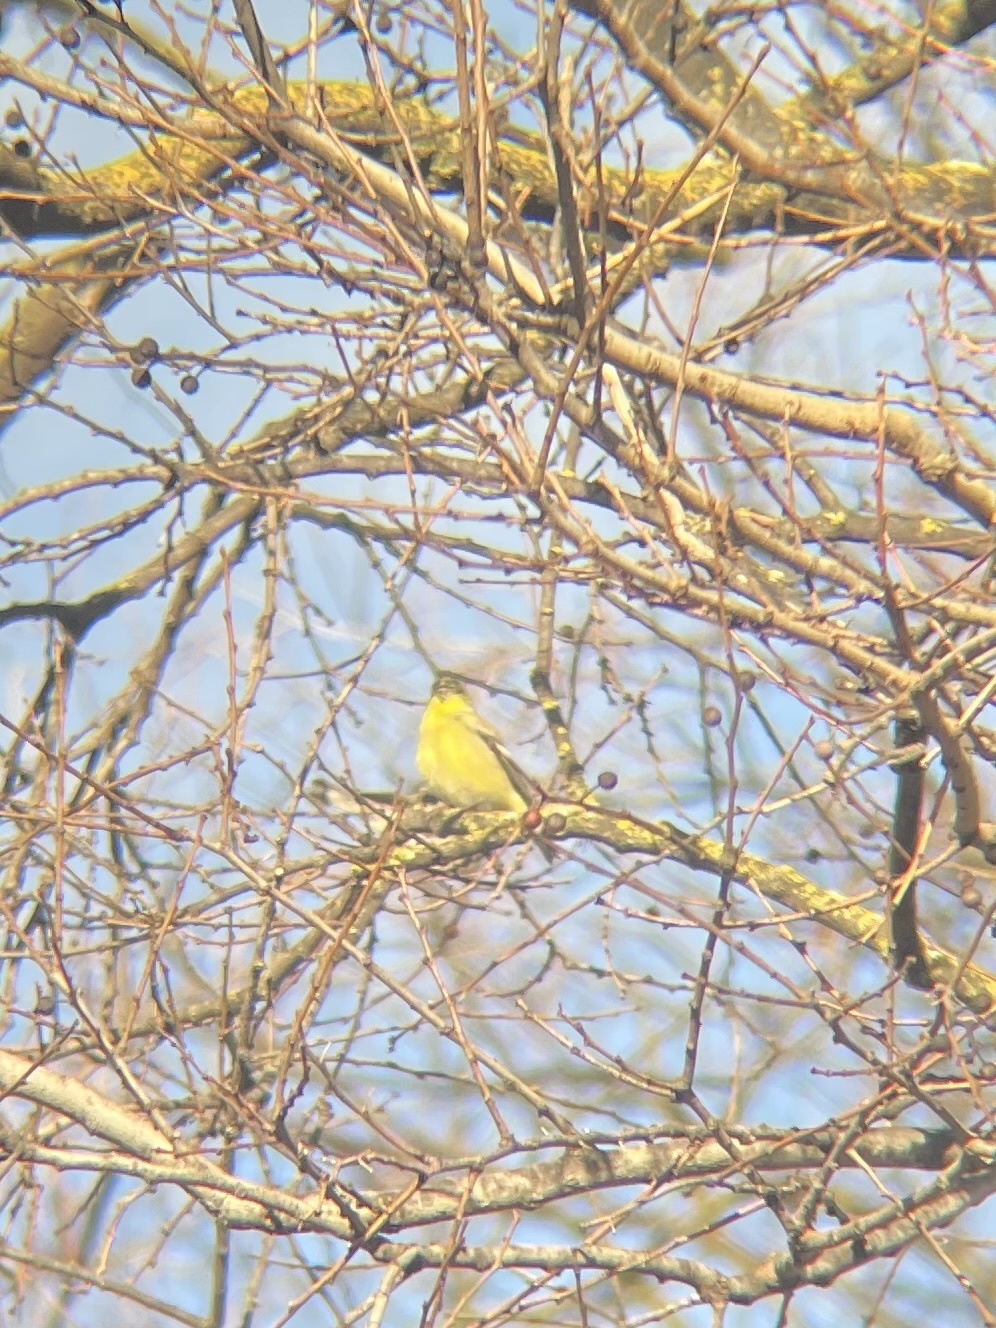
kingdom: Animalia
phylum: Chordata
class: Aves
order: Passeriformes
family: Fringillidae
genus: Spinus
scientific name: Spinus psaltria
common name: Lesser goldfinch
